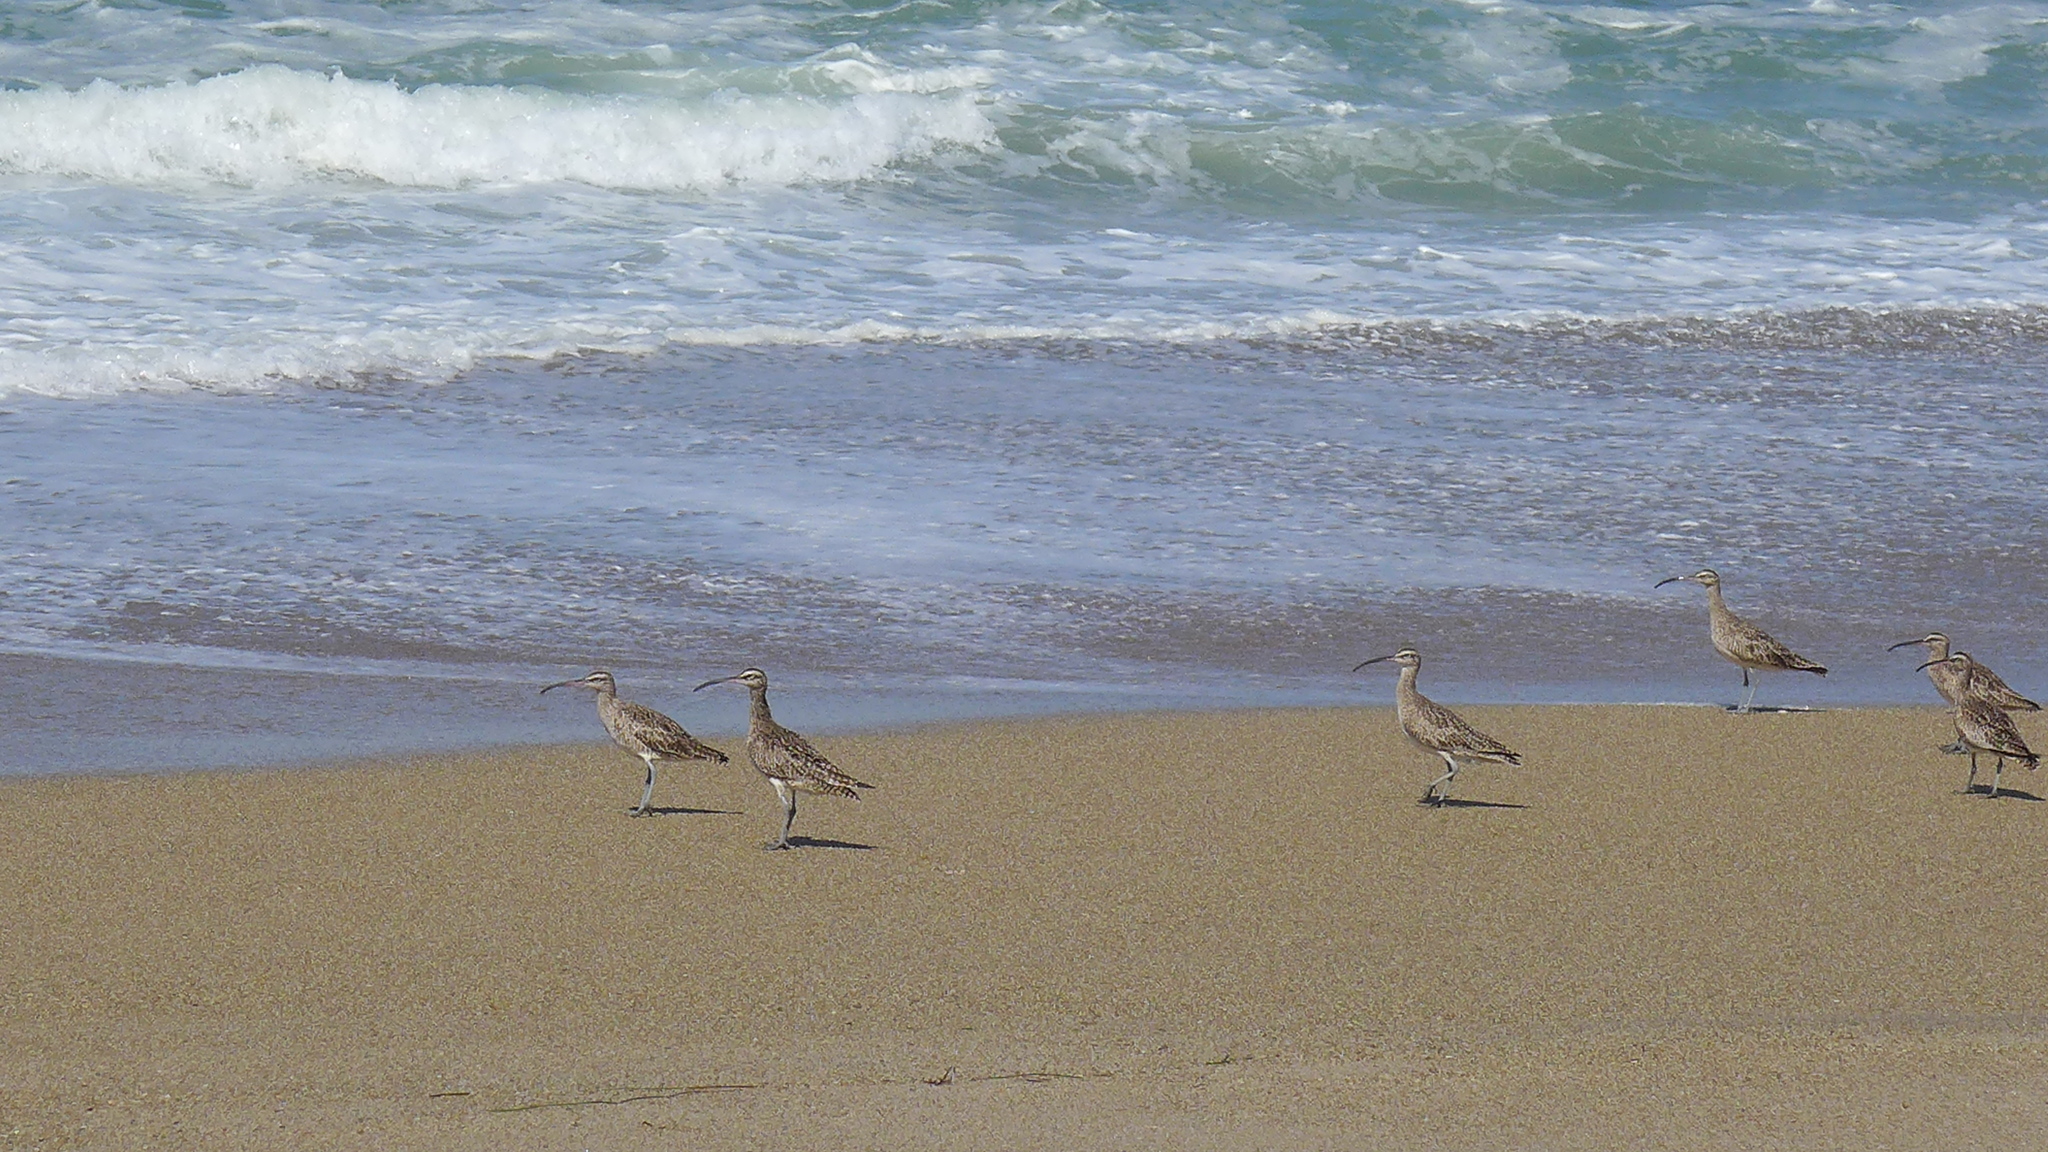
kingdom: Animalia
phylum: Chordata
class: Aves
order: Charadriiformes
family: Scolopacidae
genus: Numenius
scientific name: Numenius phaeopus
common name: Whimbrel
